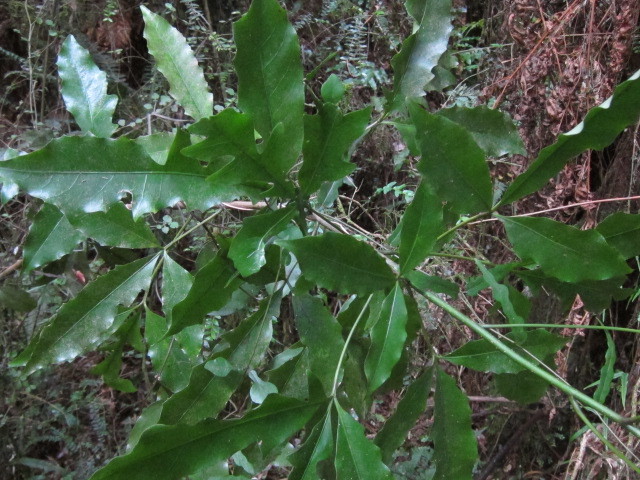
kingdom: Plantae
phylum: Tracheophyta
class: Magnoliopsida
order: Apiales
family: Araliaceae
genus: Raukaua
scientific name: Raukaua edgerleyi
